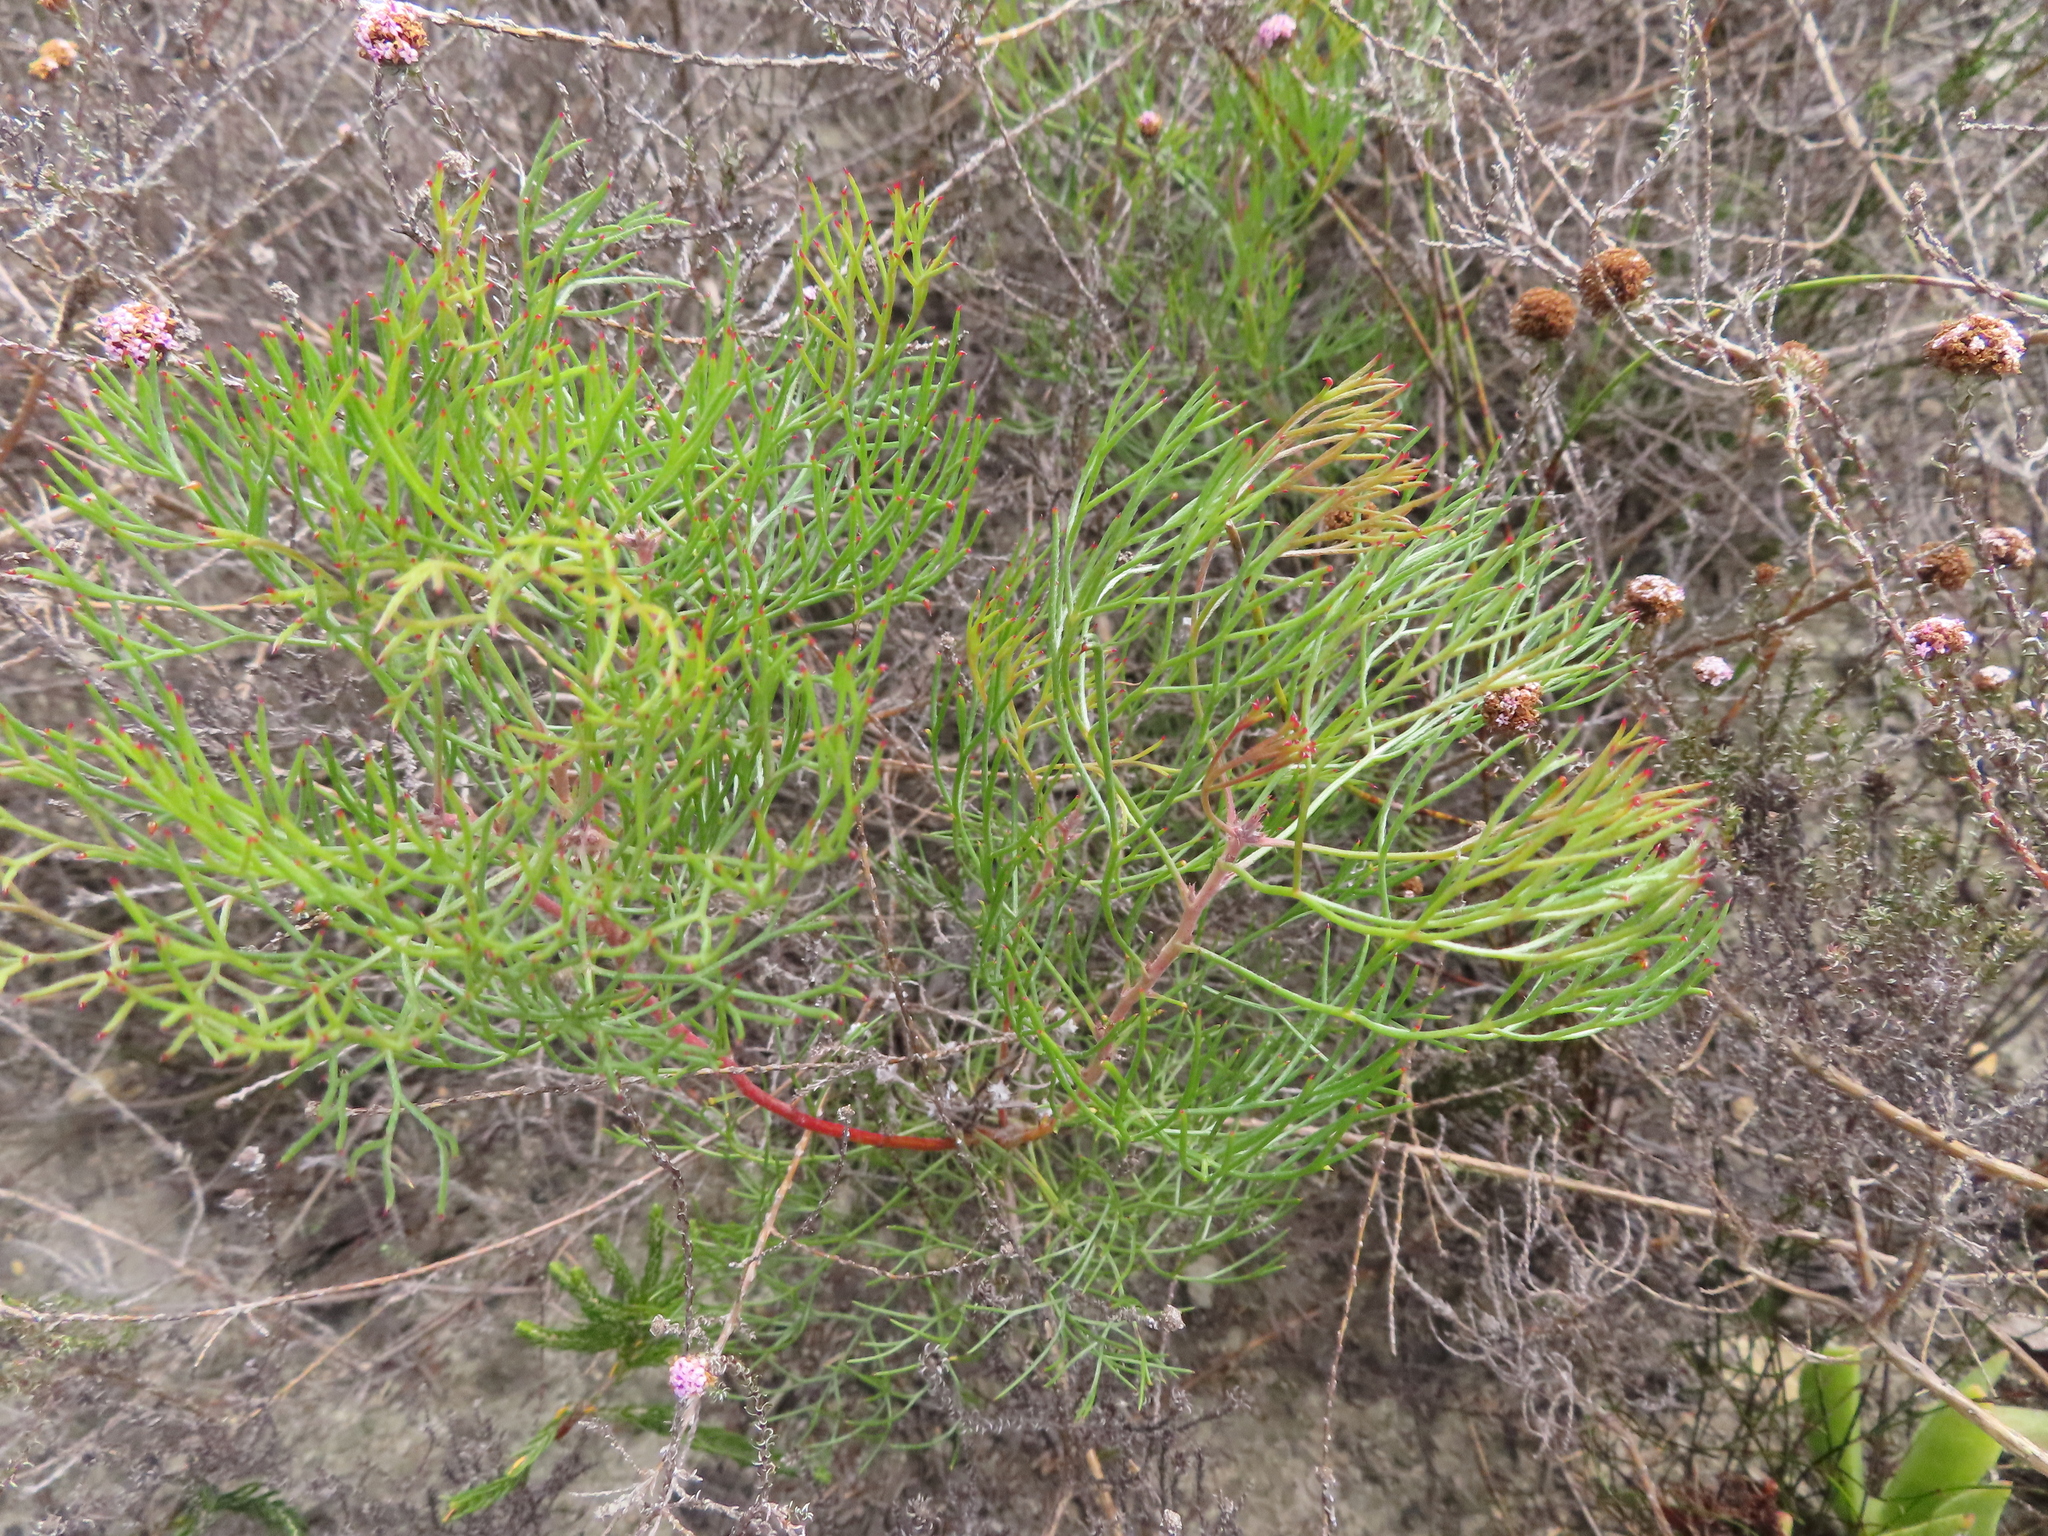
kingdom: Plantae
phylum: Tracheophyta
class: Magnoliopsida
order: Proteales
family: Proteaceae
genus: Serruria
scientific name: Serruria fasciflora
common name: Common pin spiderhead
